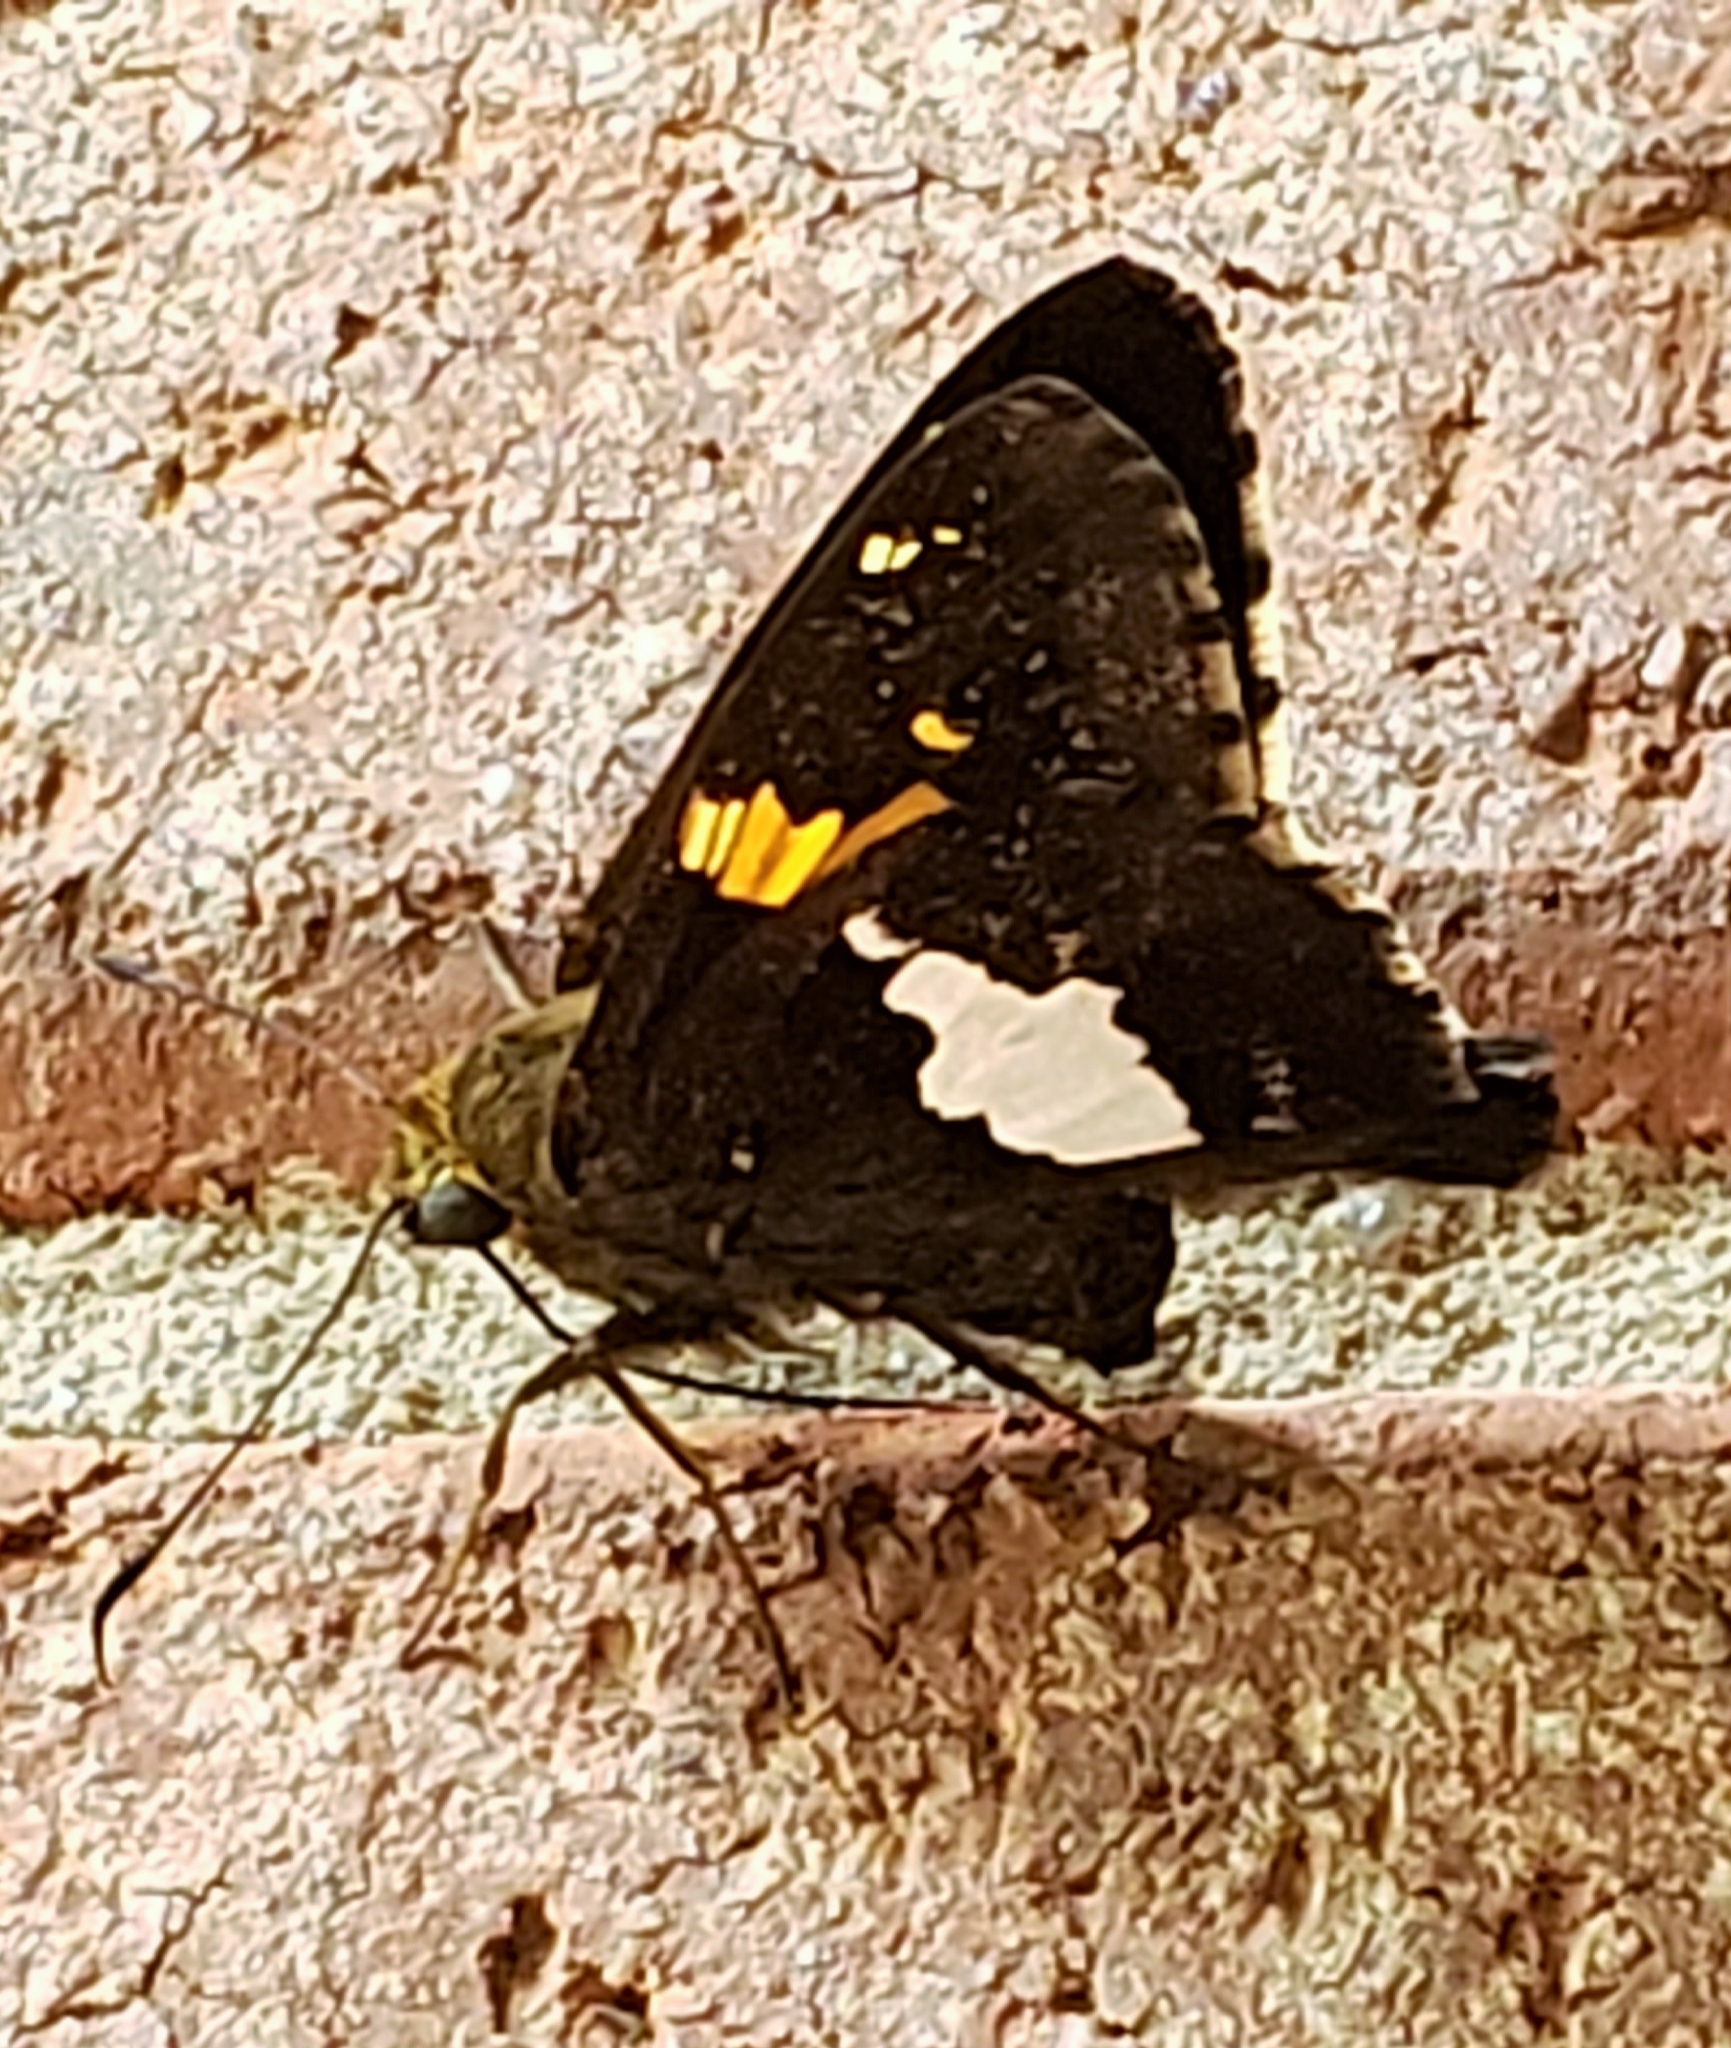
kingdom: Animalia
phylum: Arthropoda
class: Insecta
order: Lepidoptera
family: Hesperiidae
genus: Epargyreus
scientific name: Epargyreus clarus
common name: Silver-spotted skipper
